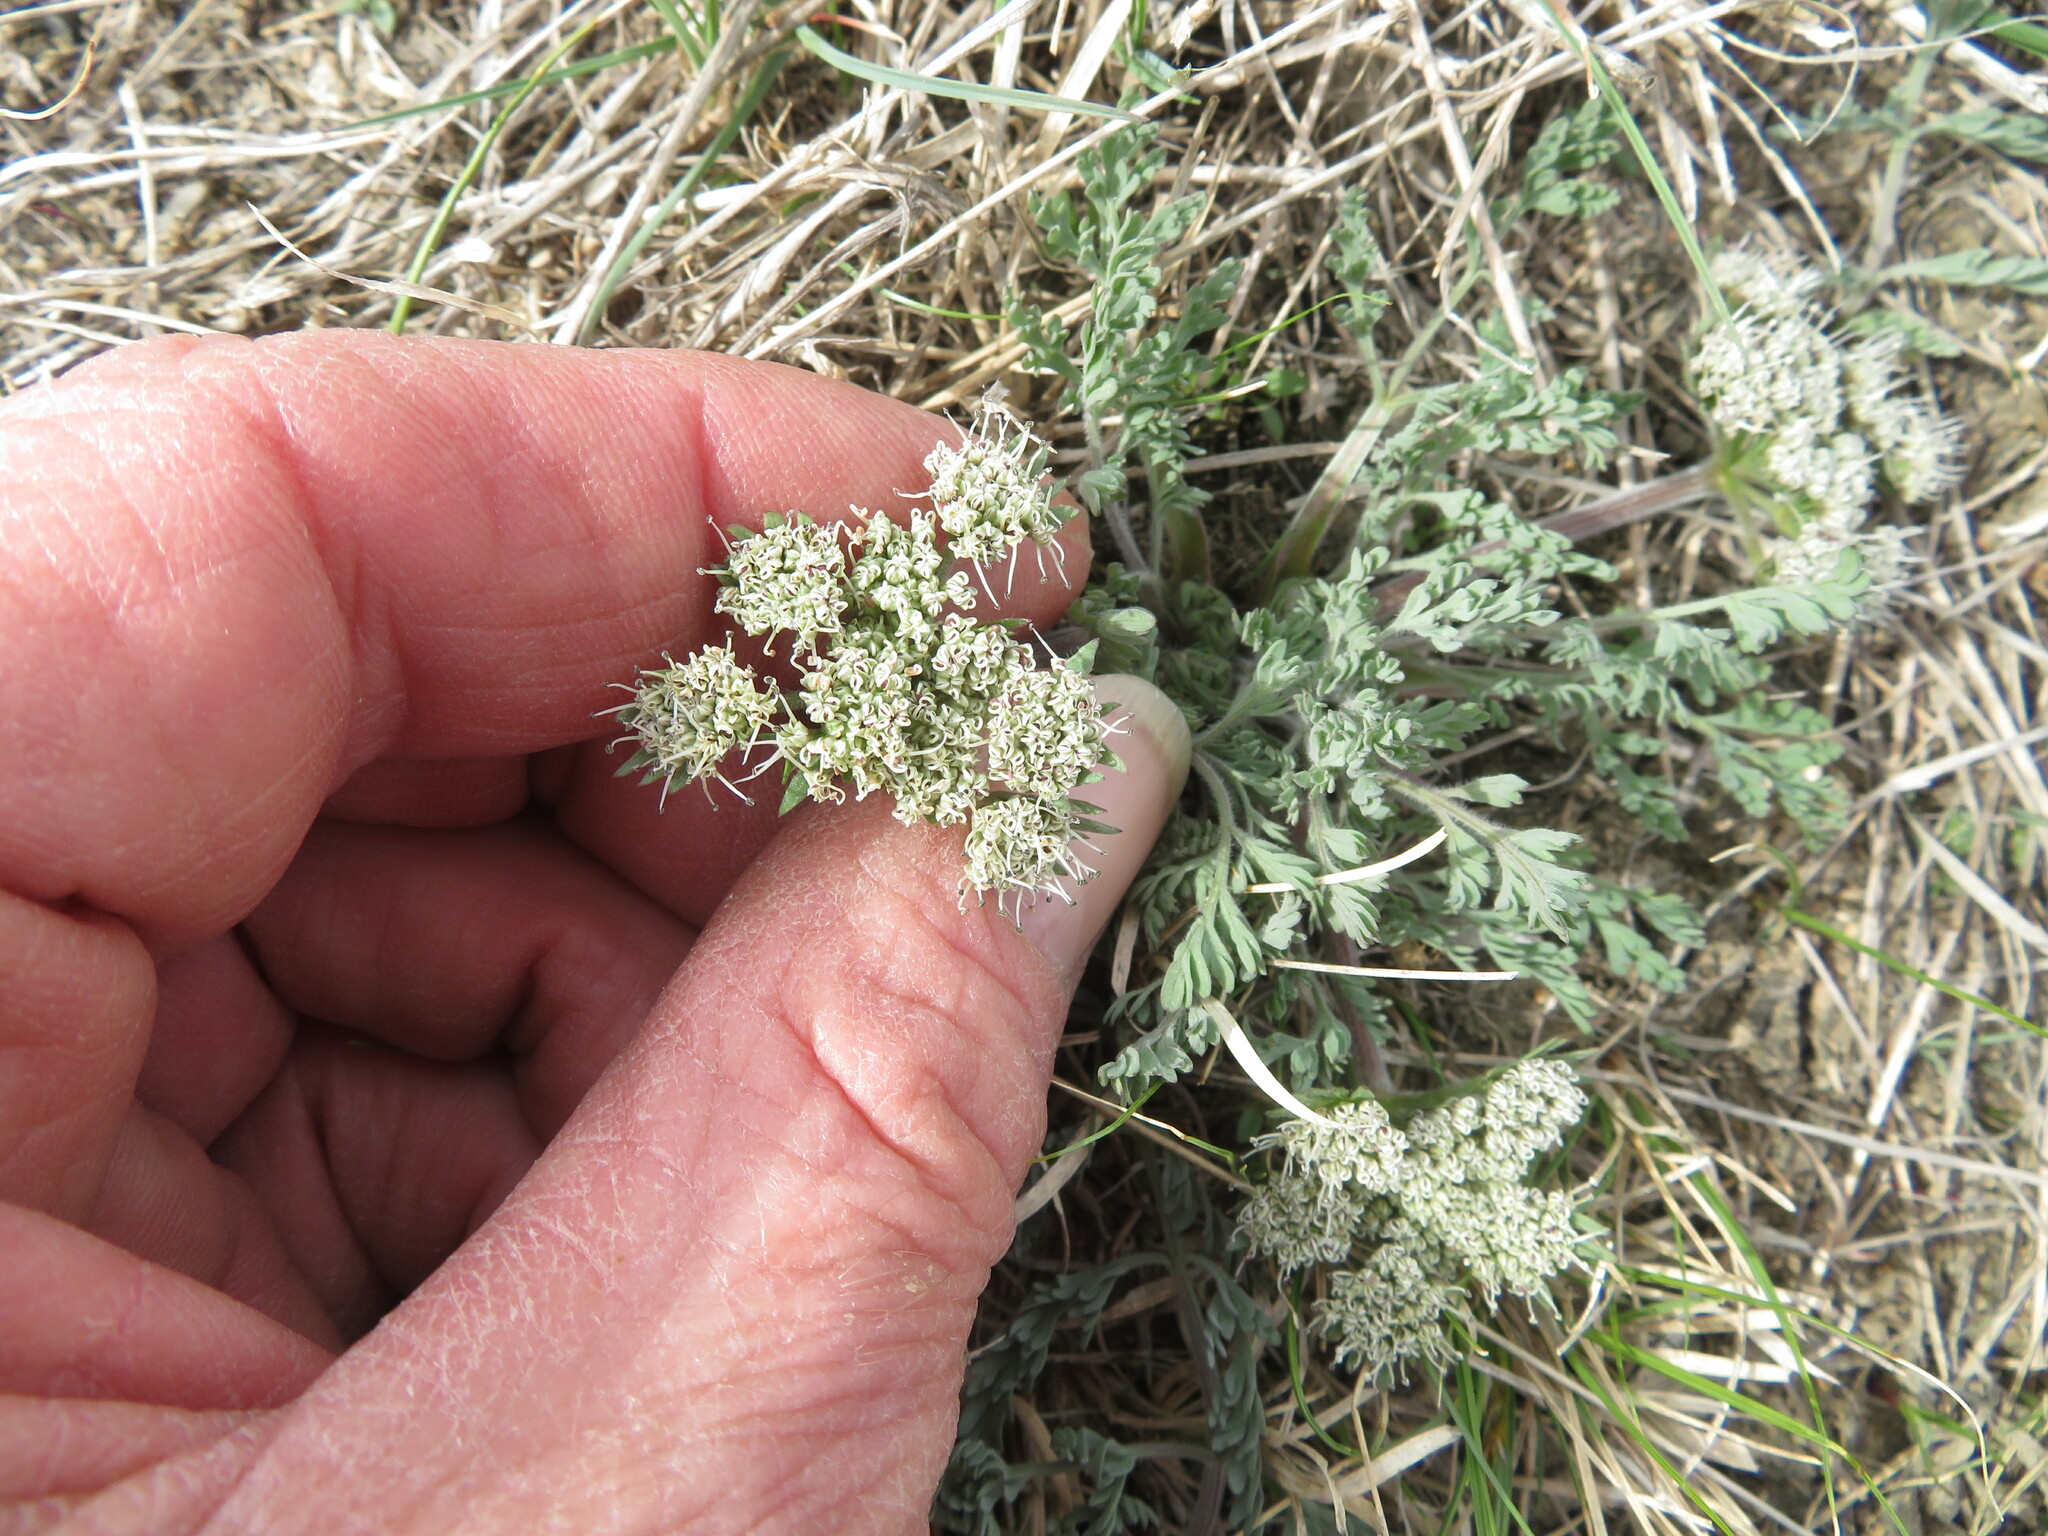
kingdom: Plantae
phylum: Tracheophyta
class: Magnoliopsida
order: Apiales
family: Apiaceae
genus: Lomatium
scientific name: Lomatium macrocarpum
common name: Big-seed biscuitroot
